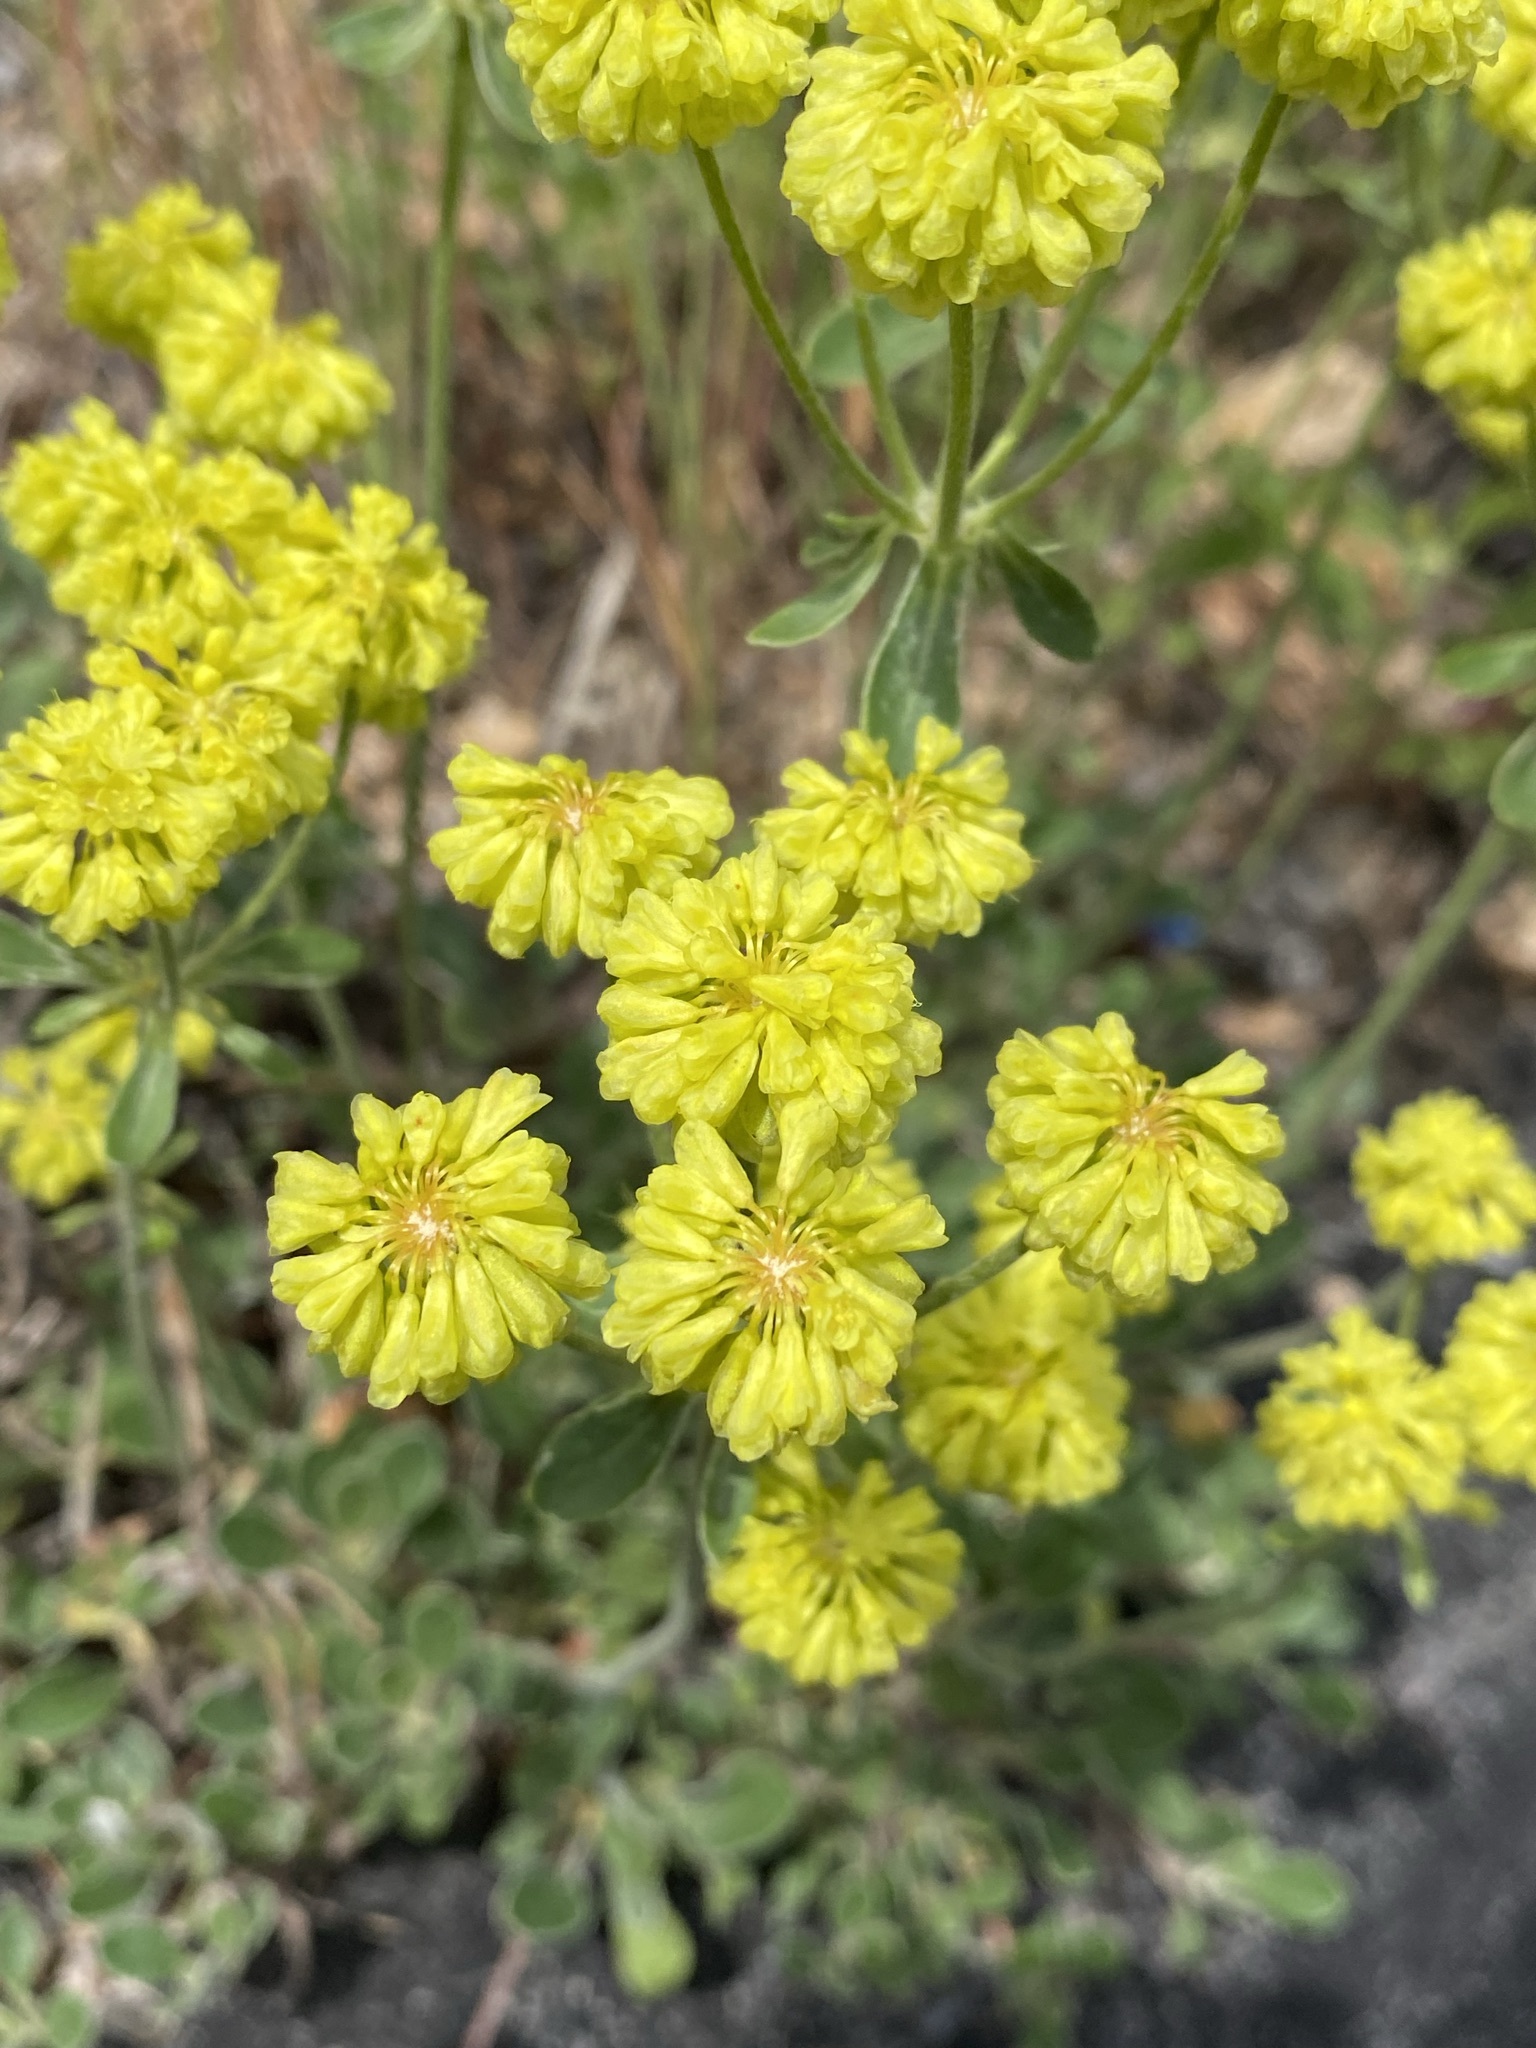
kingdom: Plantae
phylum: Tracheophyta
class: Magnoliopsida
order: Caryophyllales
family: Polygonaceae
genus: Eriogonum
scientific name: Eriogonum umbellatum
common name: Sulfur-buckwheat
